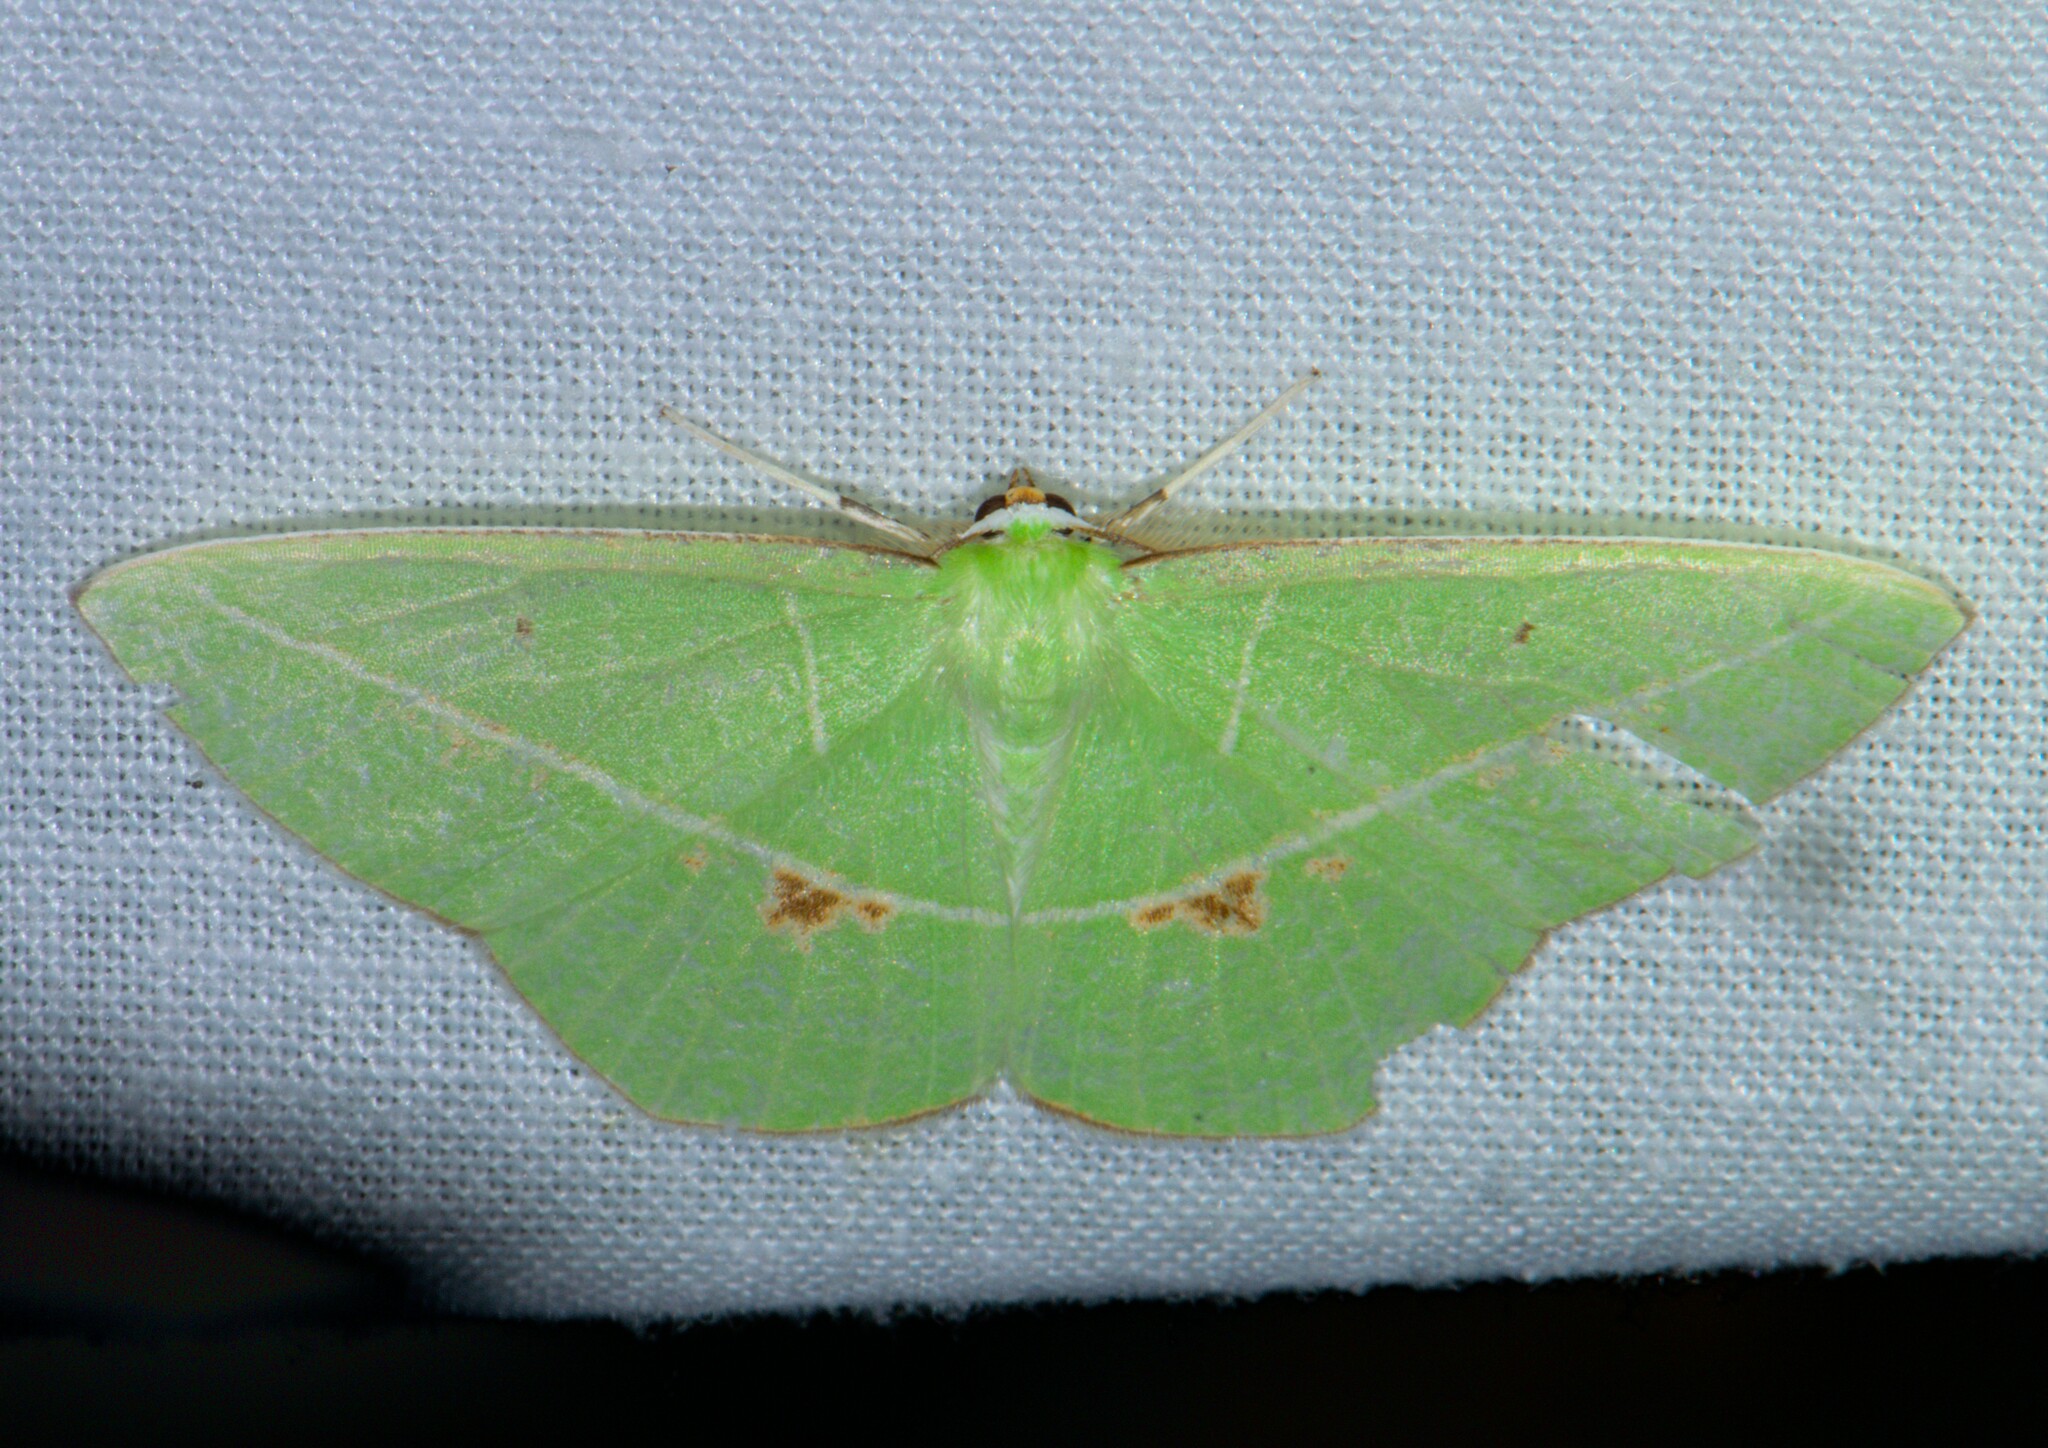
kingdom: Animalia
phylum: Arthropoda
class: Insecta
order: Lepidoptera
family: Geometridae
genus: Tanaoctenia
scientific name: Tanaoctenia haliaria
